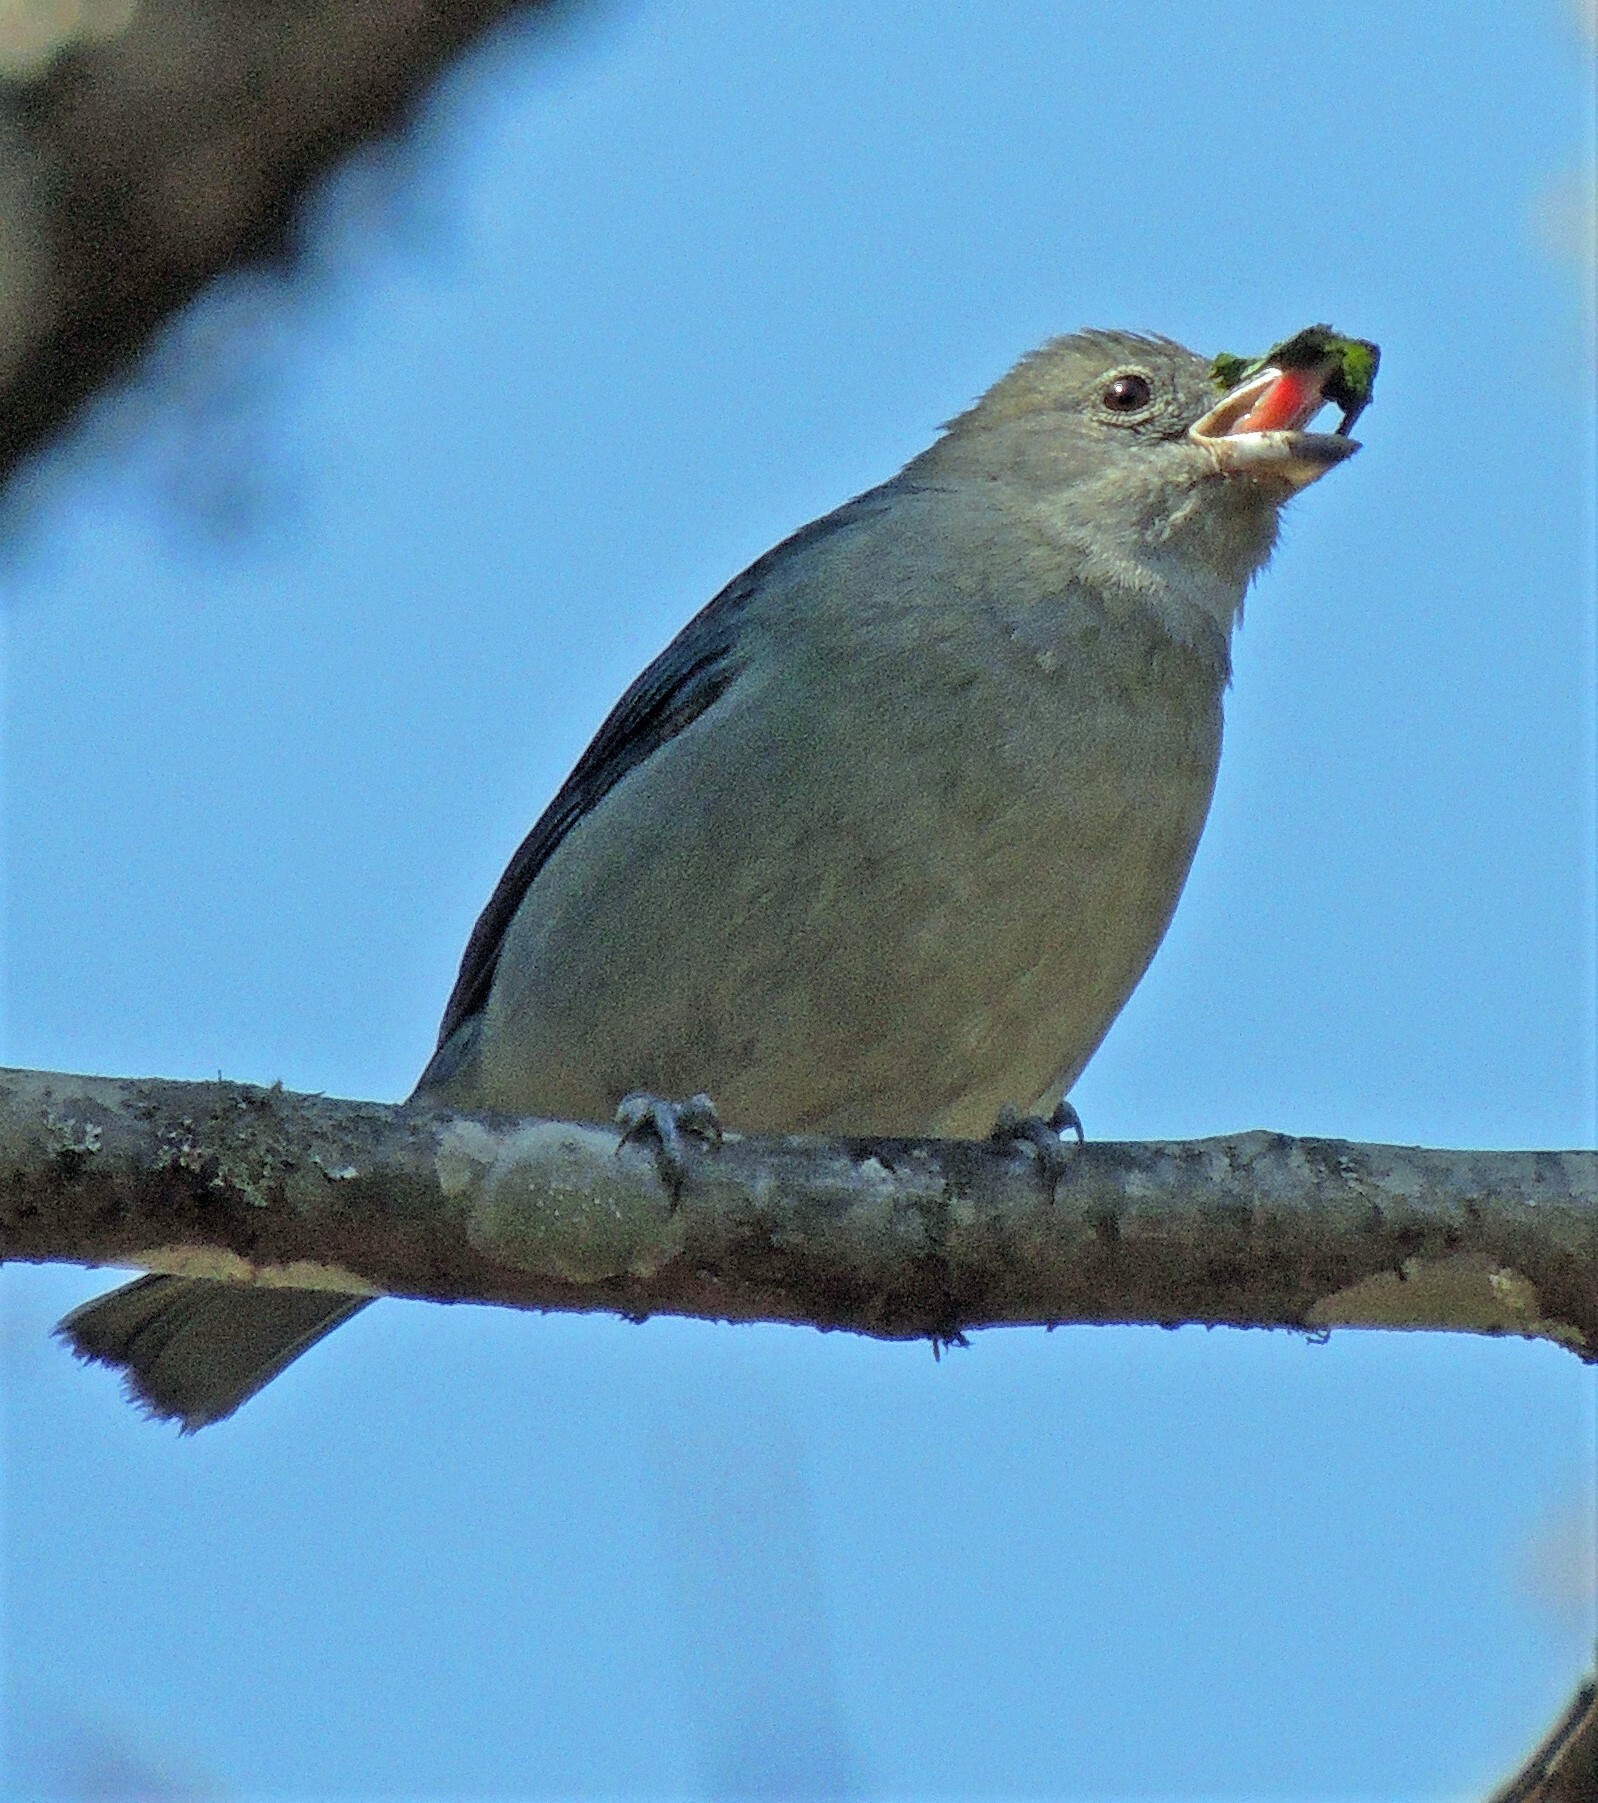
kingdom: Animalia
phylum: Chordata
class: Aves
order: Passeriformes
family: Thraupidae
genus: Thraupis
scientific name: Thraupis sayaca
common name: Sayaca tanager
